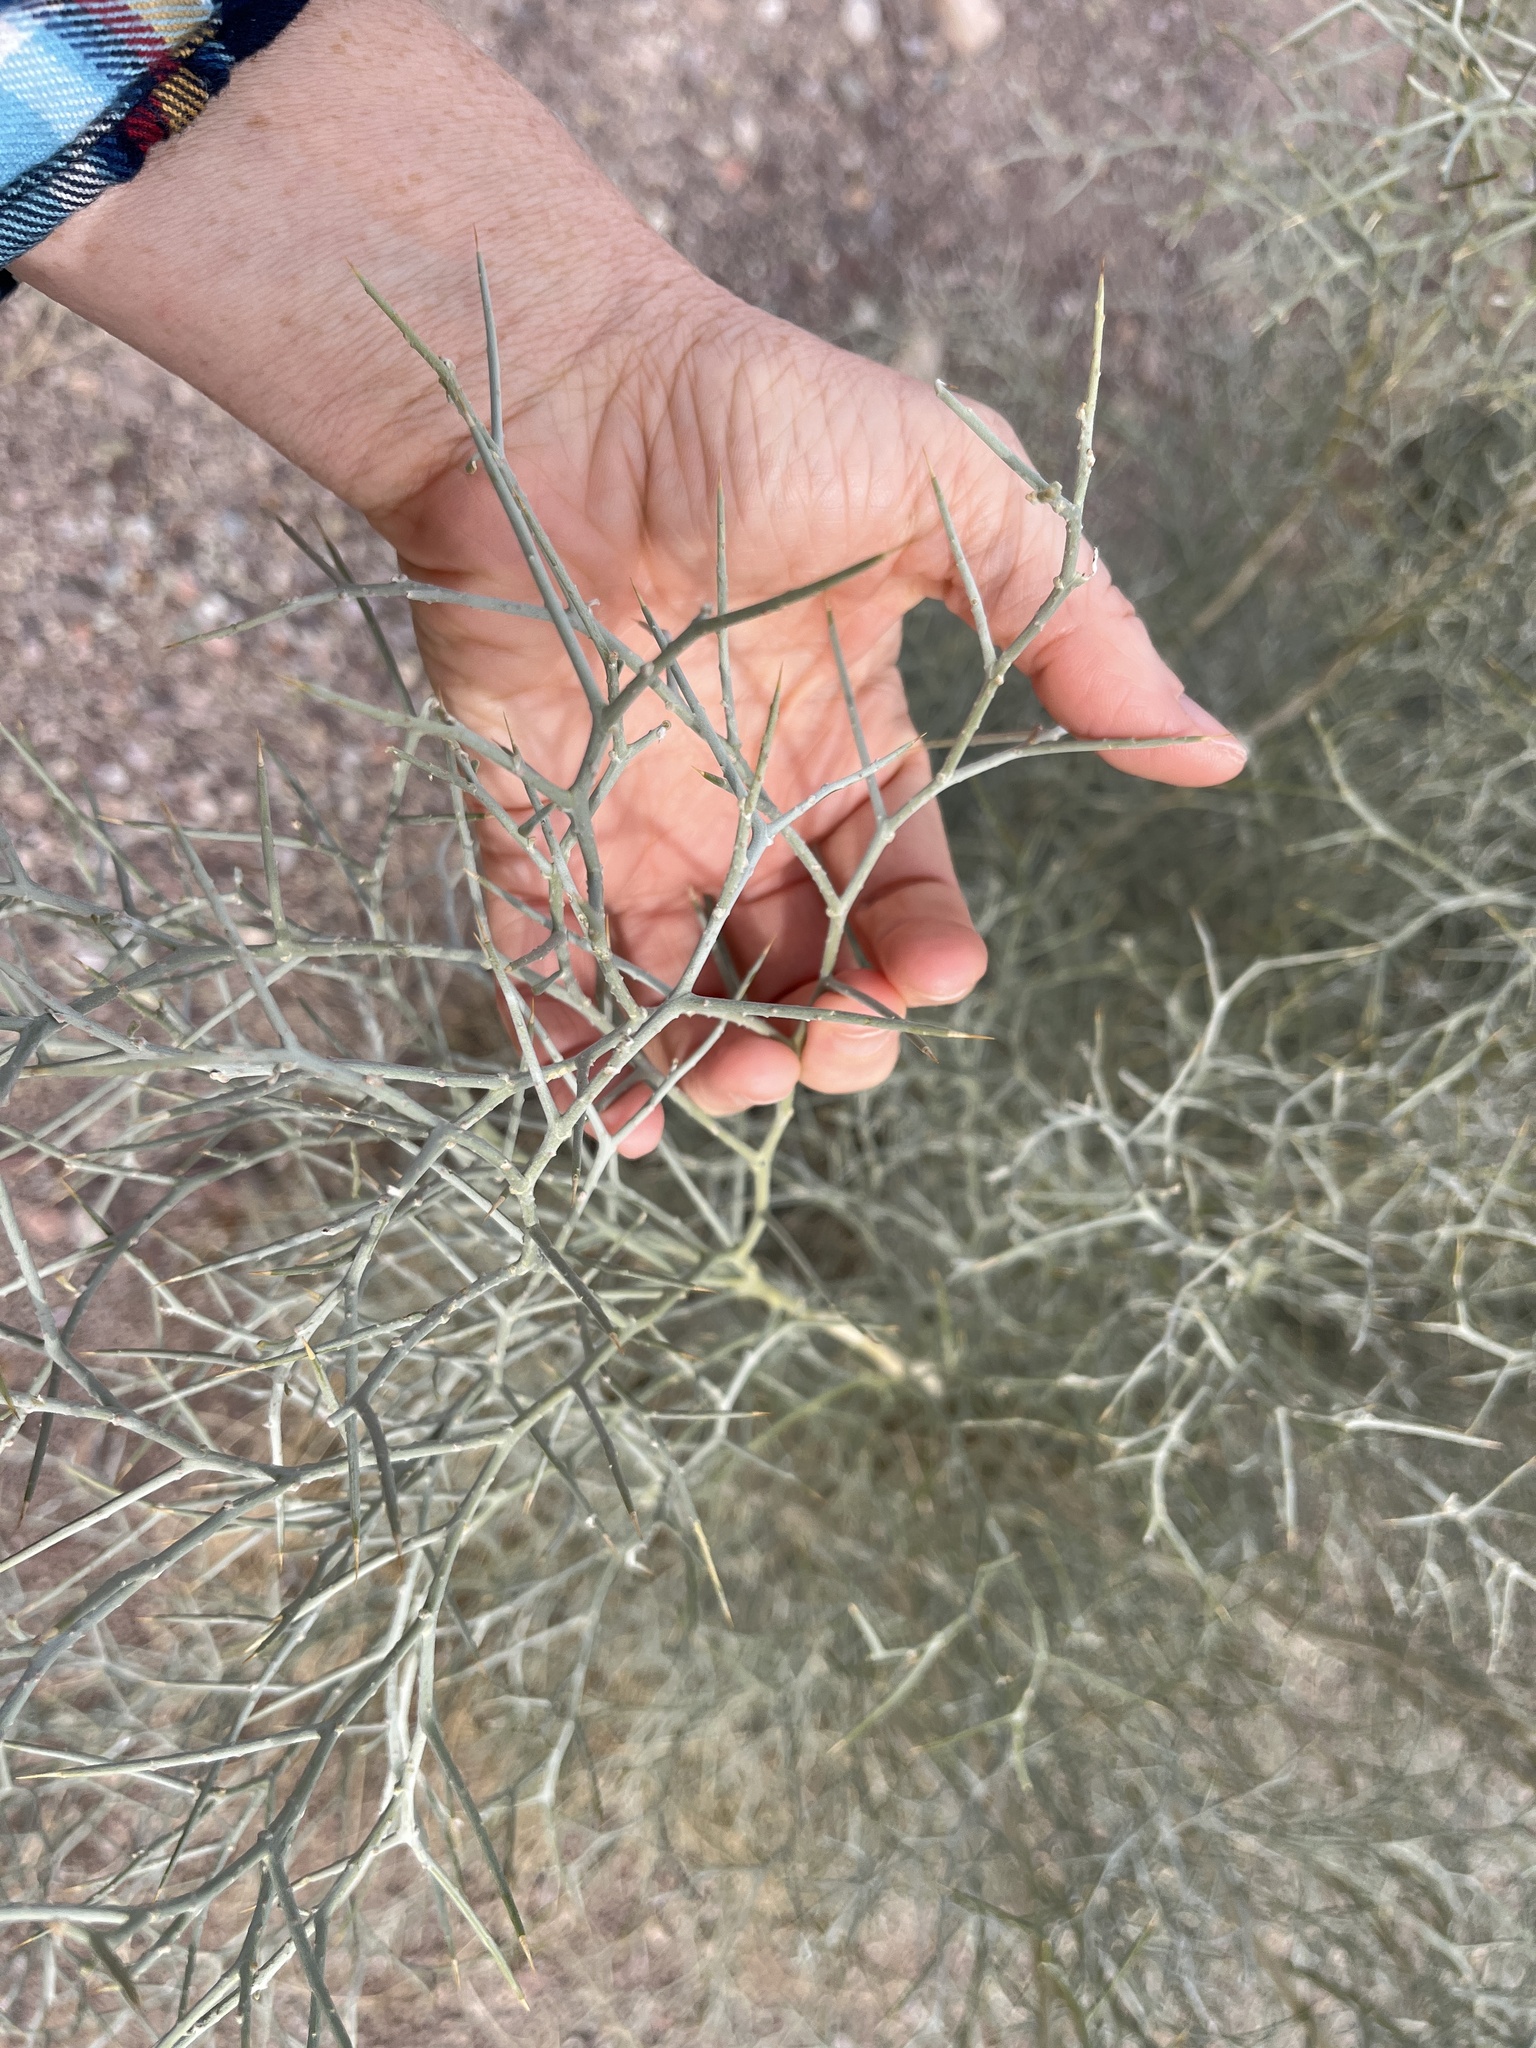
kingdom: Plantae
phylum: Tracheophyta
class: Magnoliopsida
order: Fabales
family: Fabaceae
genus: Psorothamnus
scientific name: Psorothamnus spinosus
